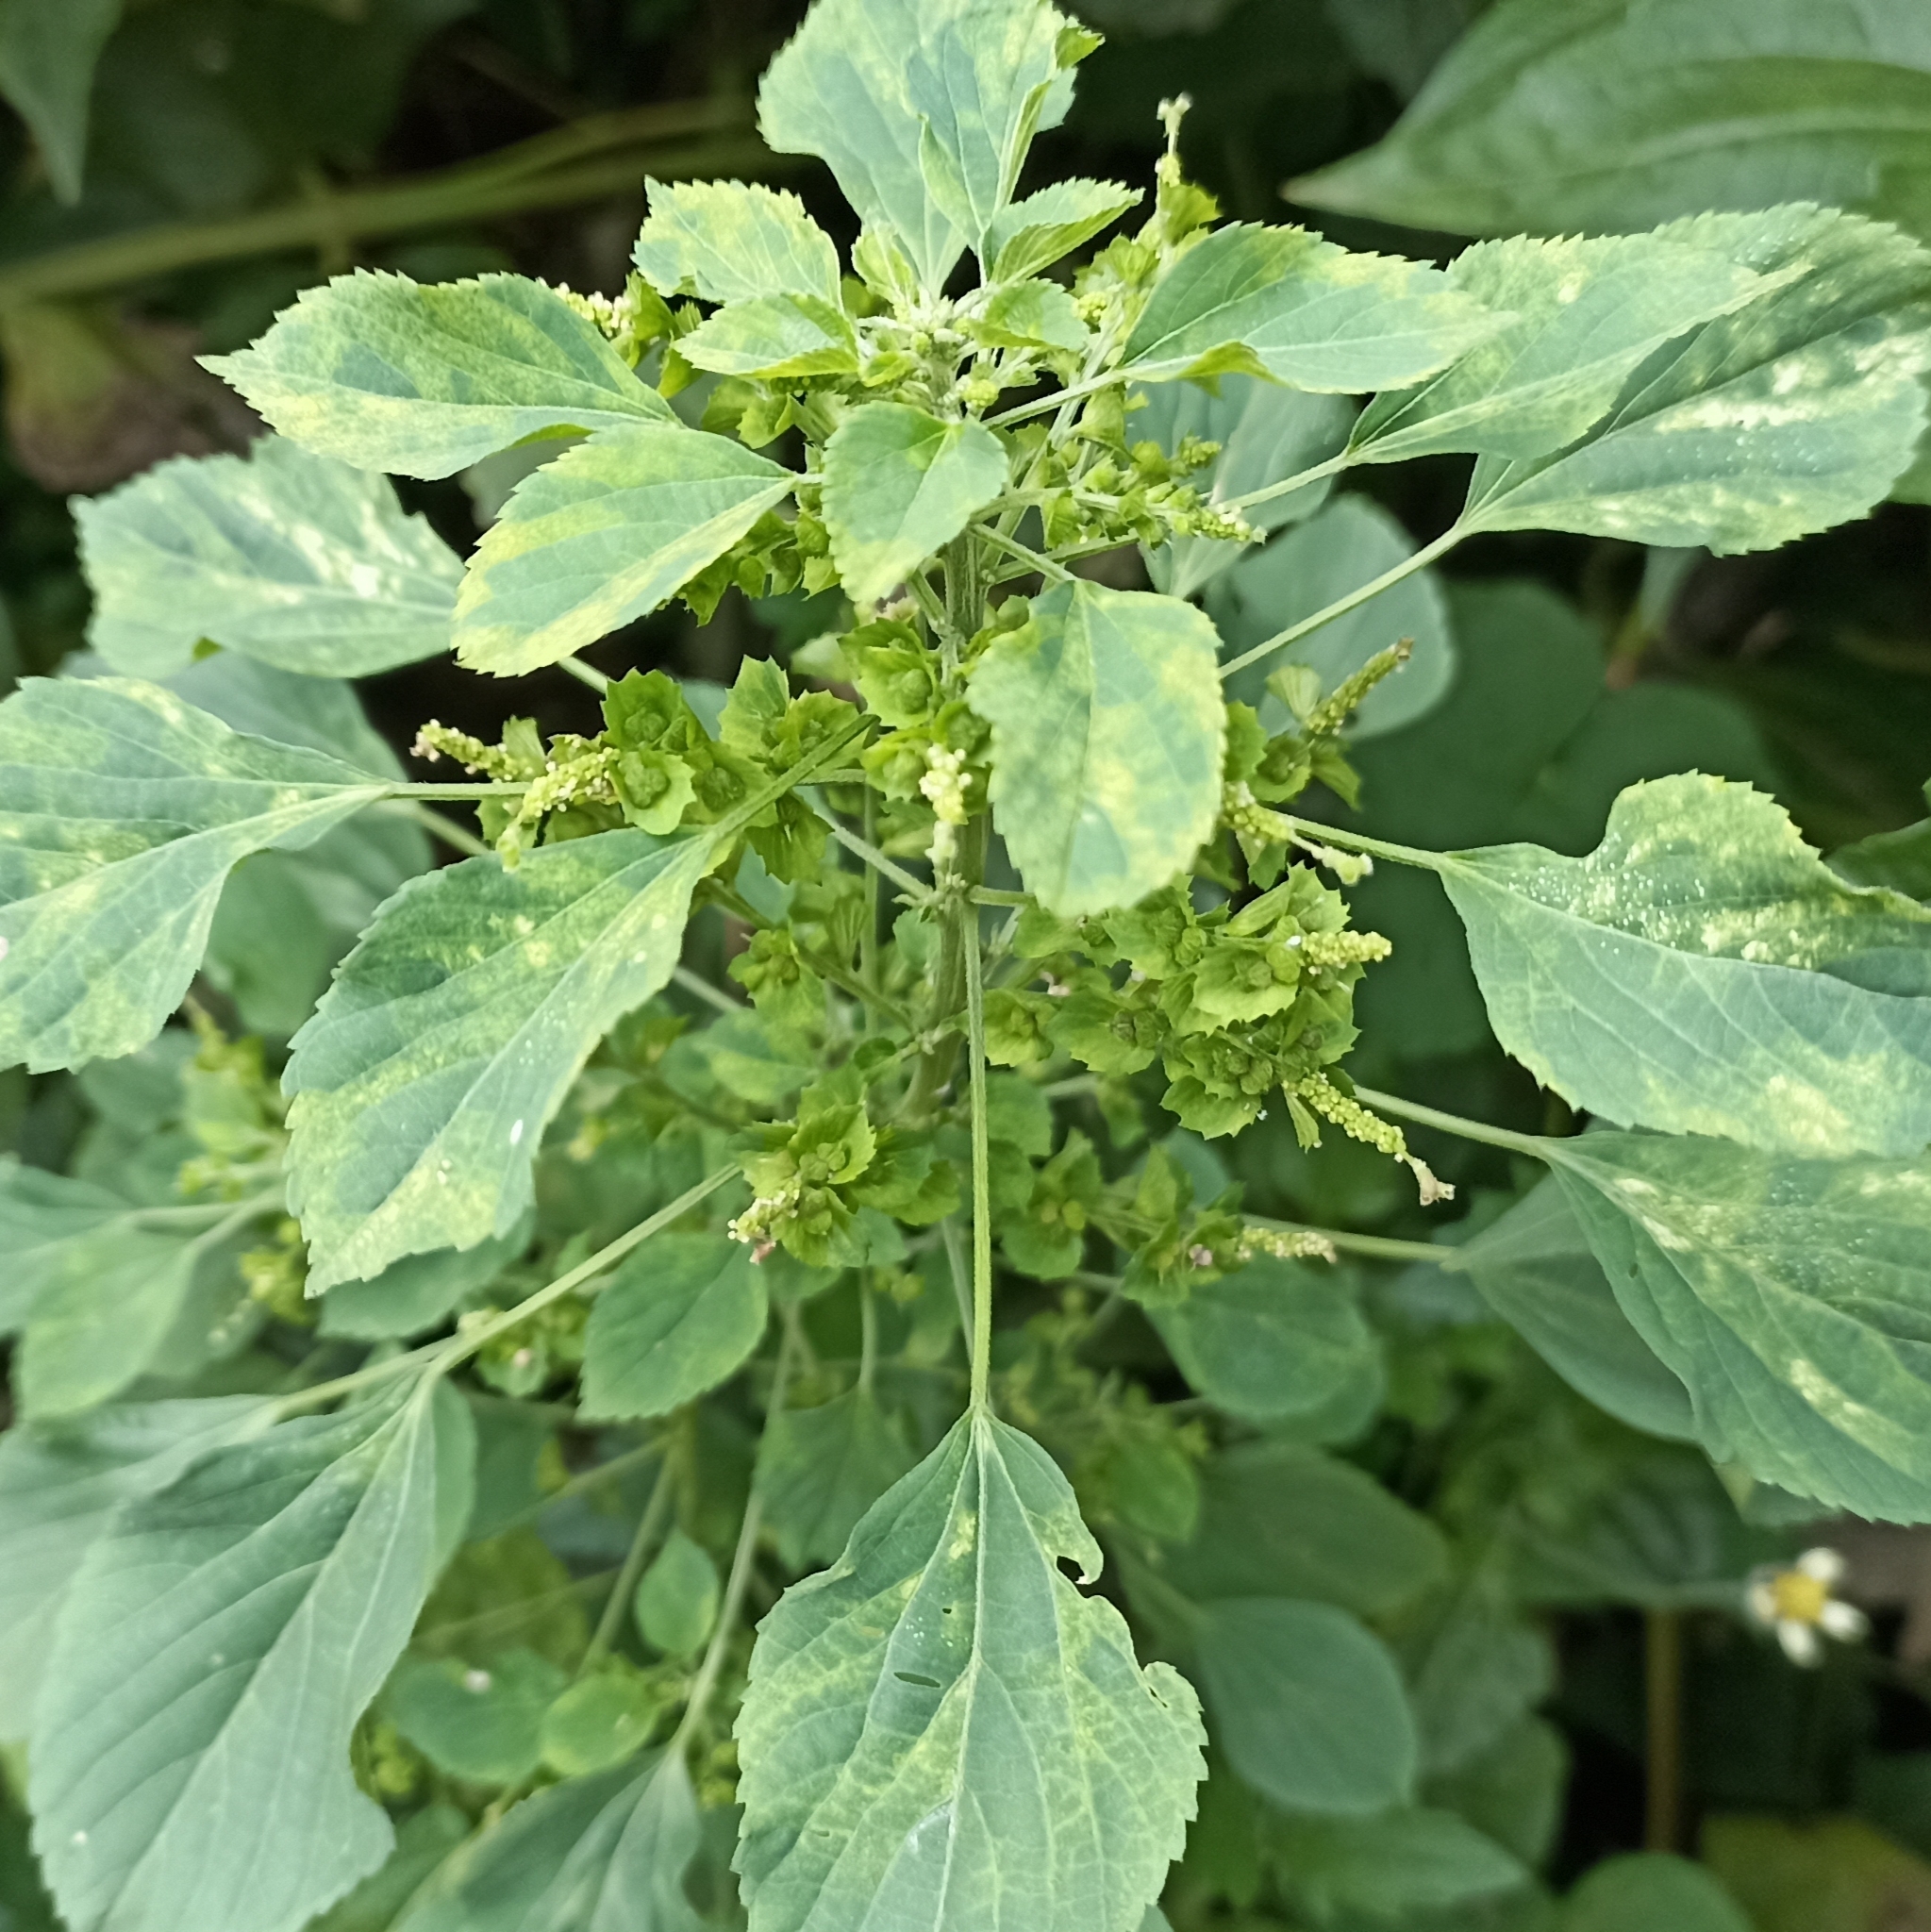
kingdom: Plantae
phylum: Tracheophyta
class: Magnoliopsida
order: Malpighiales
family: Euphorbiaceae
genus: Acalypha
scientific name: Acalypha indica
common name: Indian acalypha
